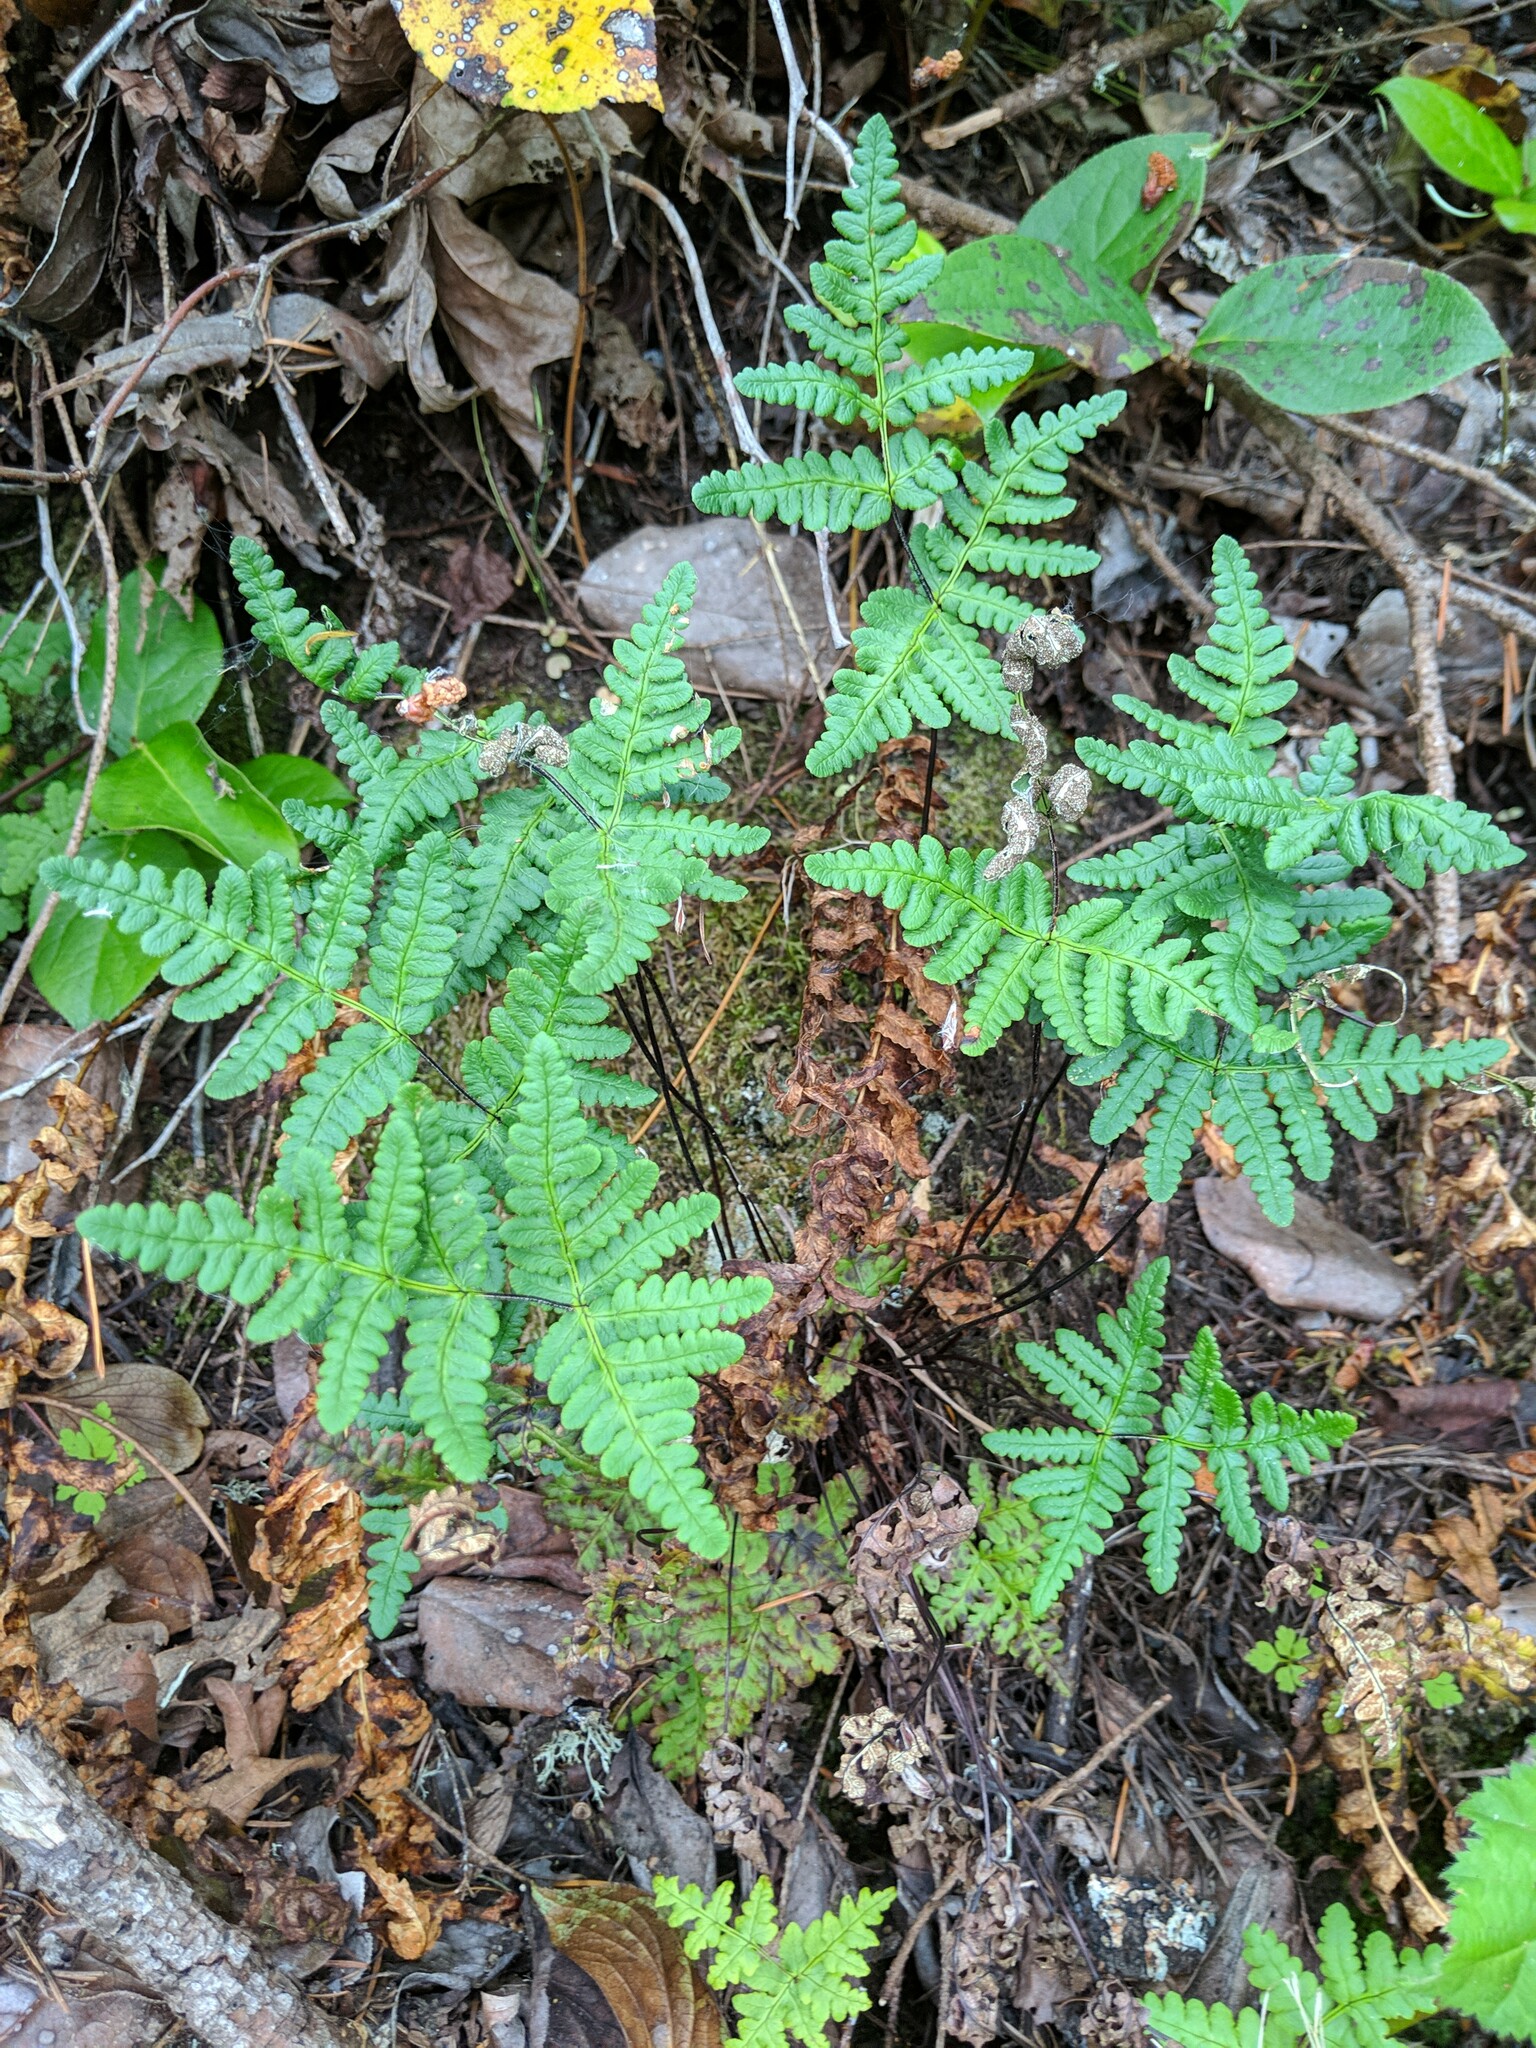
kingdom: Plantae
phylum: Tracheophyta
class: Polypodiopsida
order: Polypodiales
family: Pteridaceae
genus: Pentagramma
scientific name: Pentagramma triangularis
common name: Gold fern
